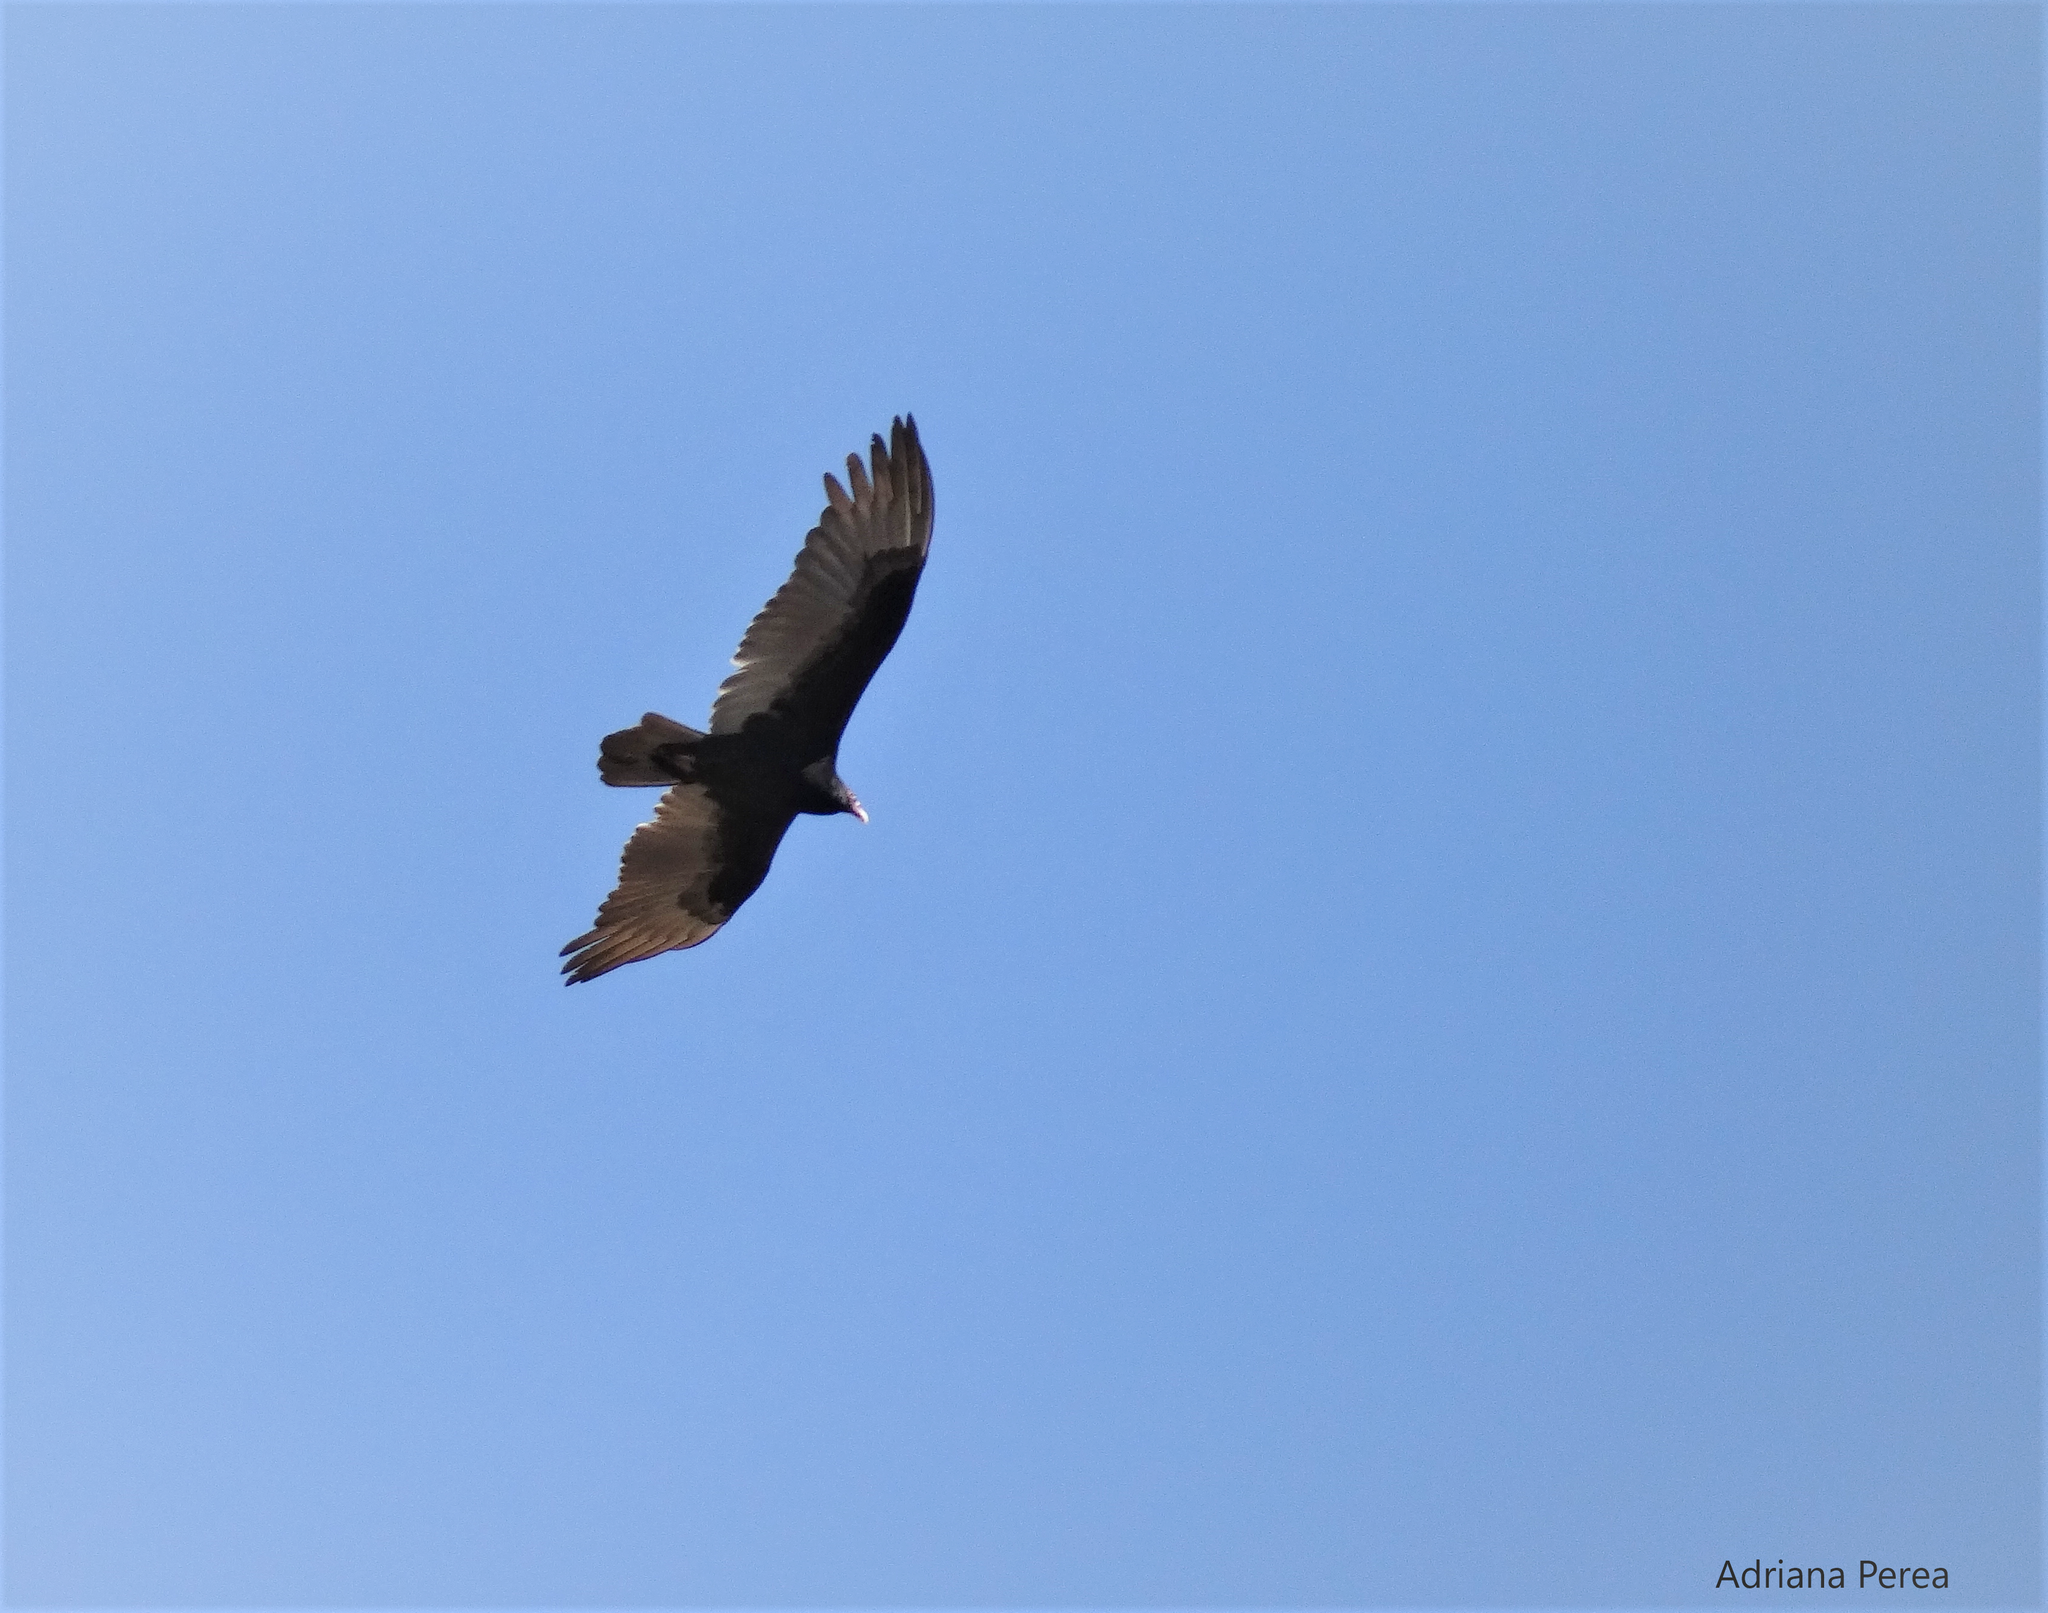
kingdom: Animalia
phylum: Chordata
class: Aves
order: Accipitriformes
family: Cathartidae
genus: Cathartes
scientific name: Cathartes aura
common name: Turkey vulture
